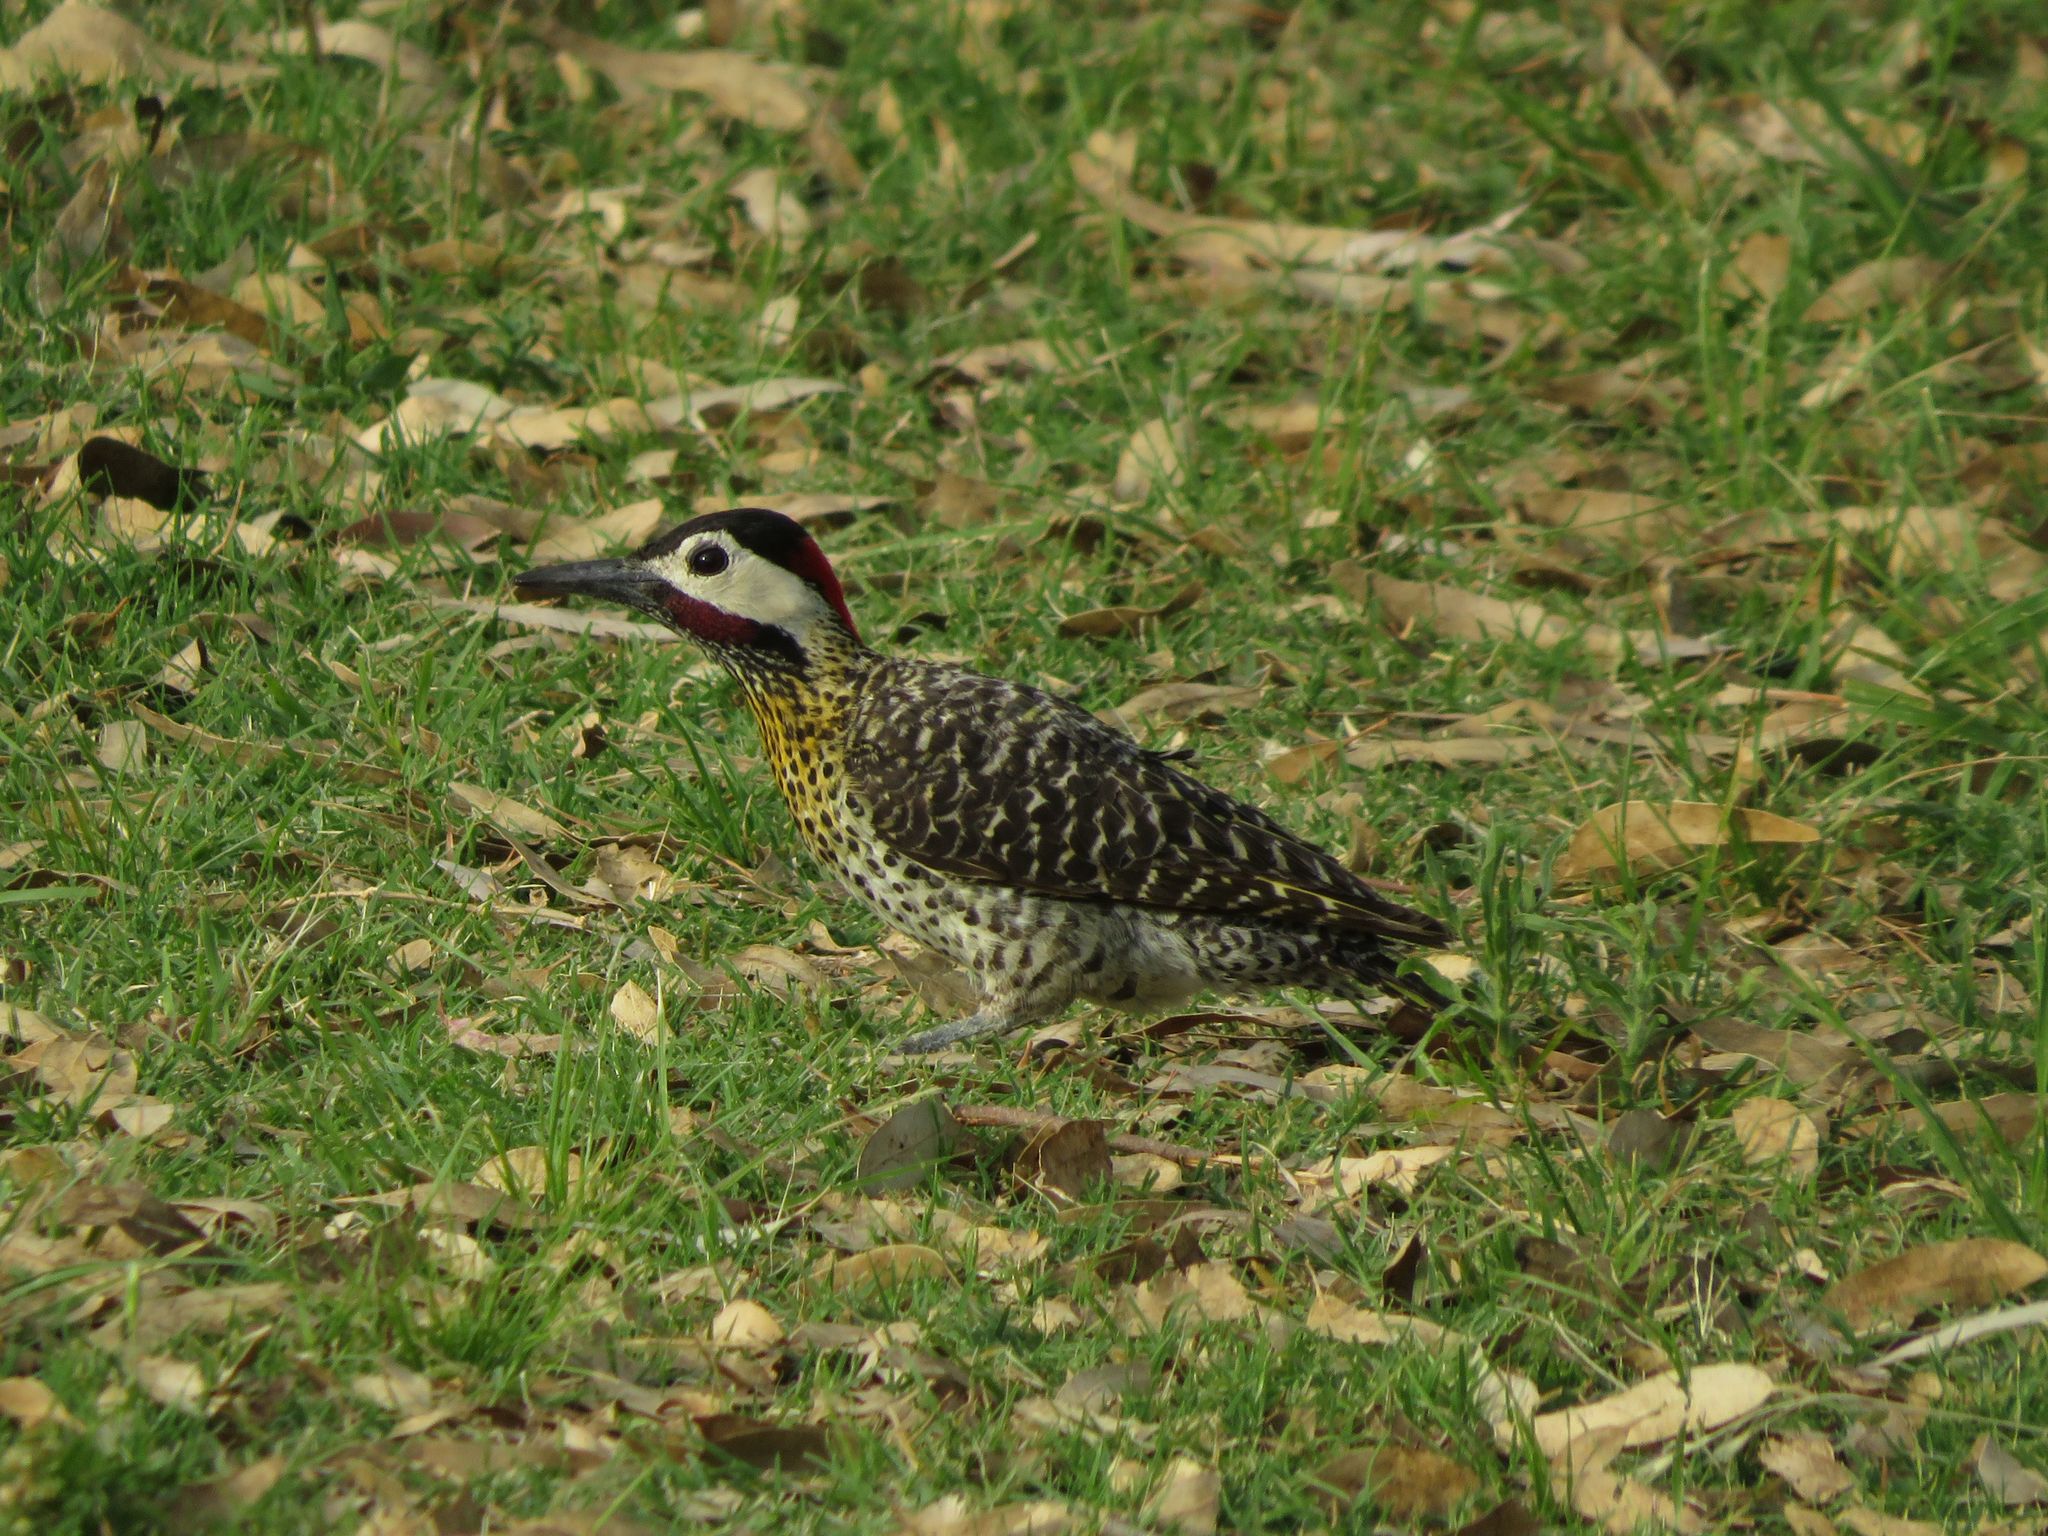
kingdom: Animalia
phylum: Chordata
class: Aves
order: Piciformes
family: Picidae
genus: Colaptes
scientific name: Colaptes melanochloros
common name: Green-barred woodpecker
